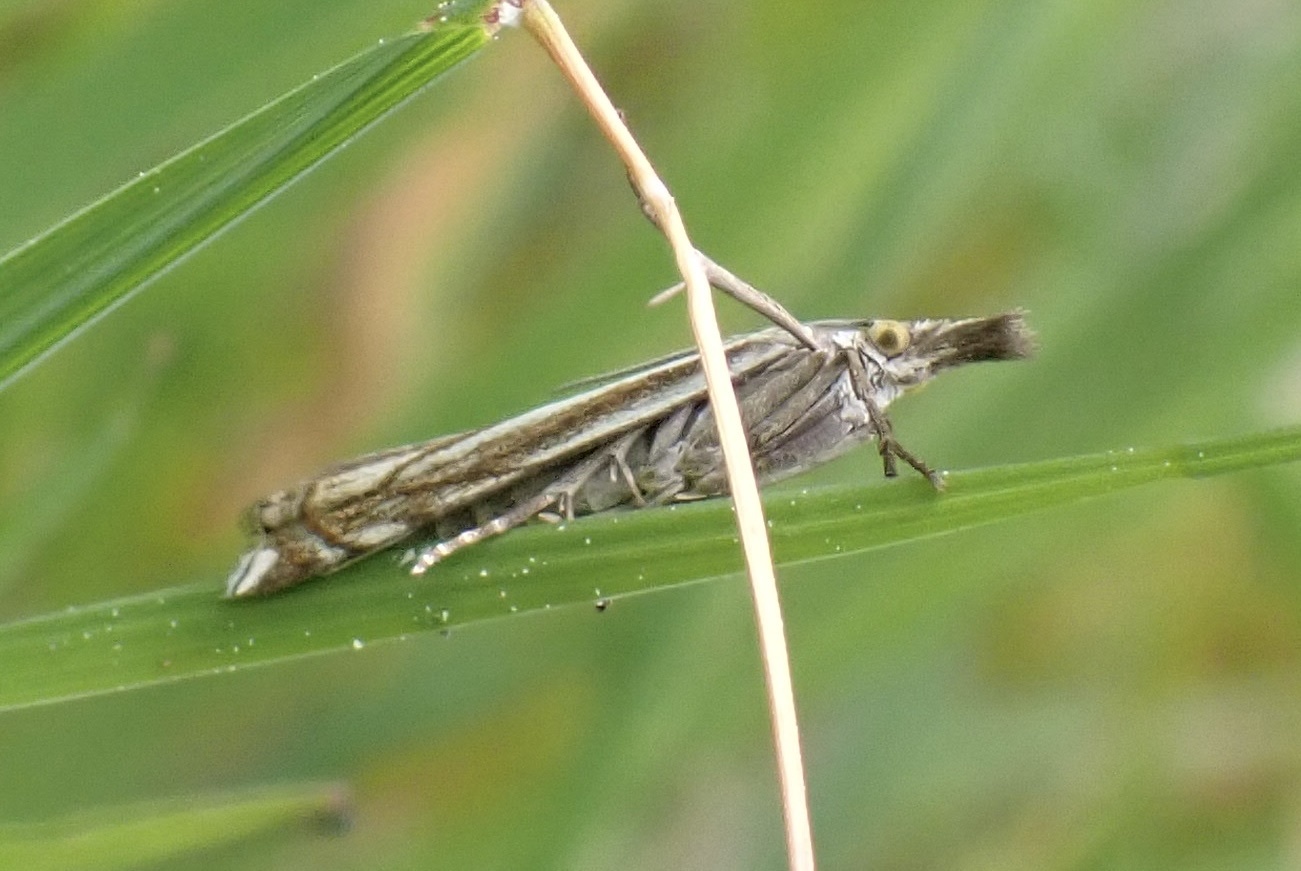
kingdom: Animalia
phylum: Arthropoda
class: Insecta
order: Lepidoptera
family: Crambidae
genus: Crambus
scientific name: Crambus nemorella
